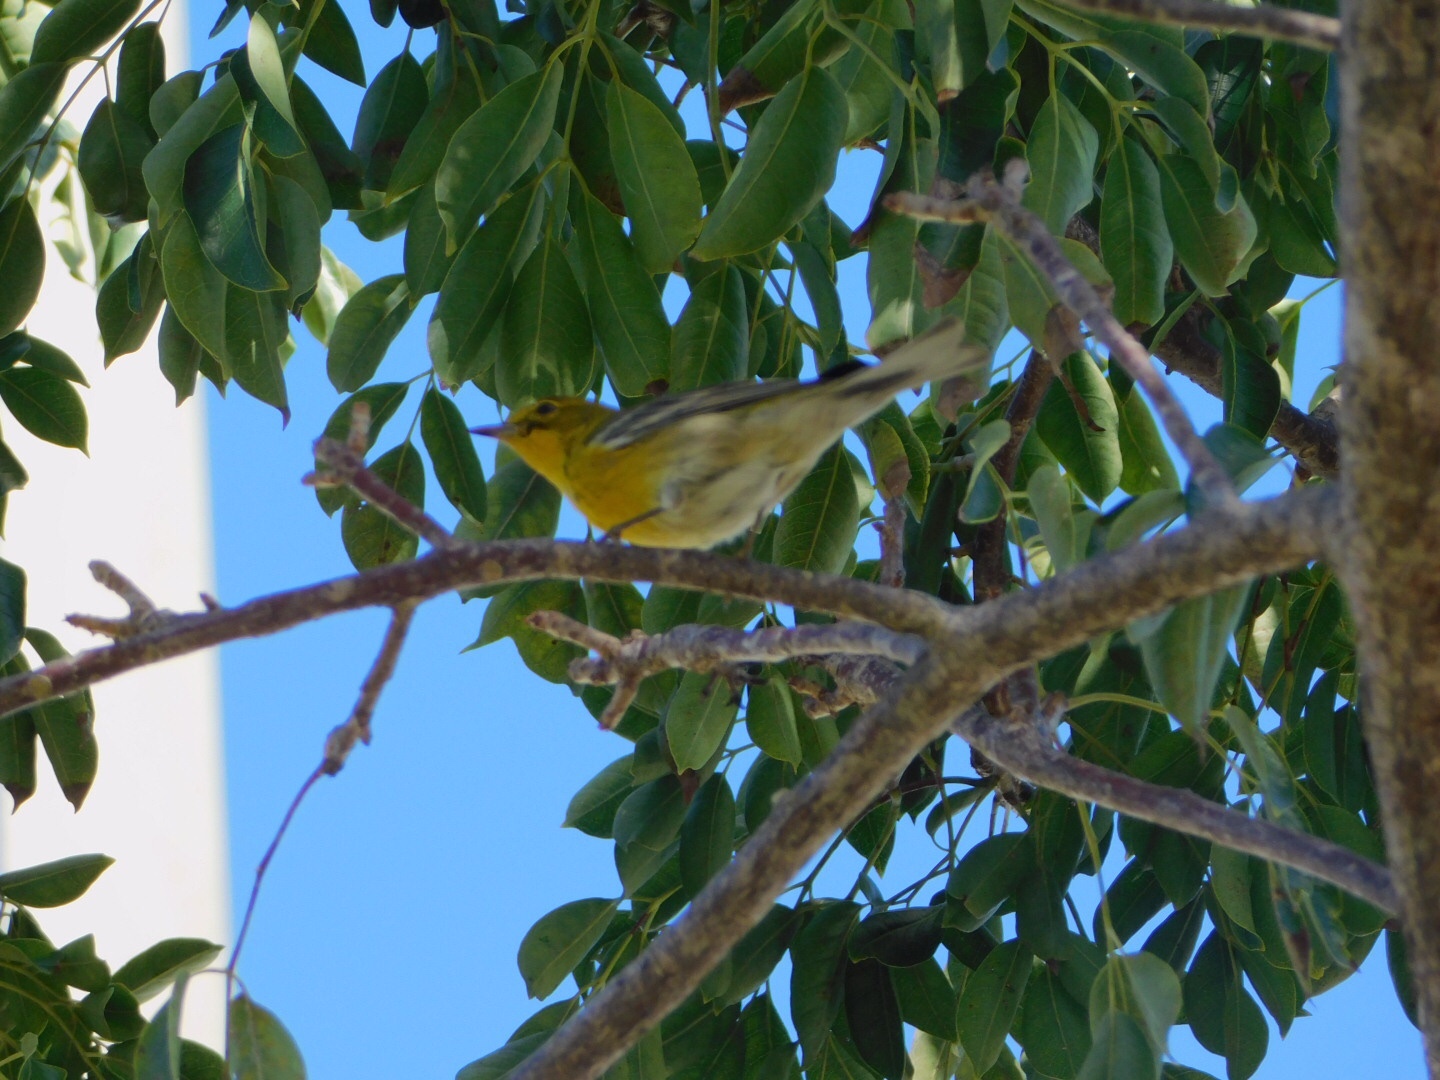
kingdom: Animalia
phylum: Chordata
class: Aves
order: Passeriformes
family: Parulidae
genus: Setophaga
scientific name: Setophaga pinus
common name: Pine warbler
